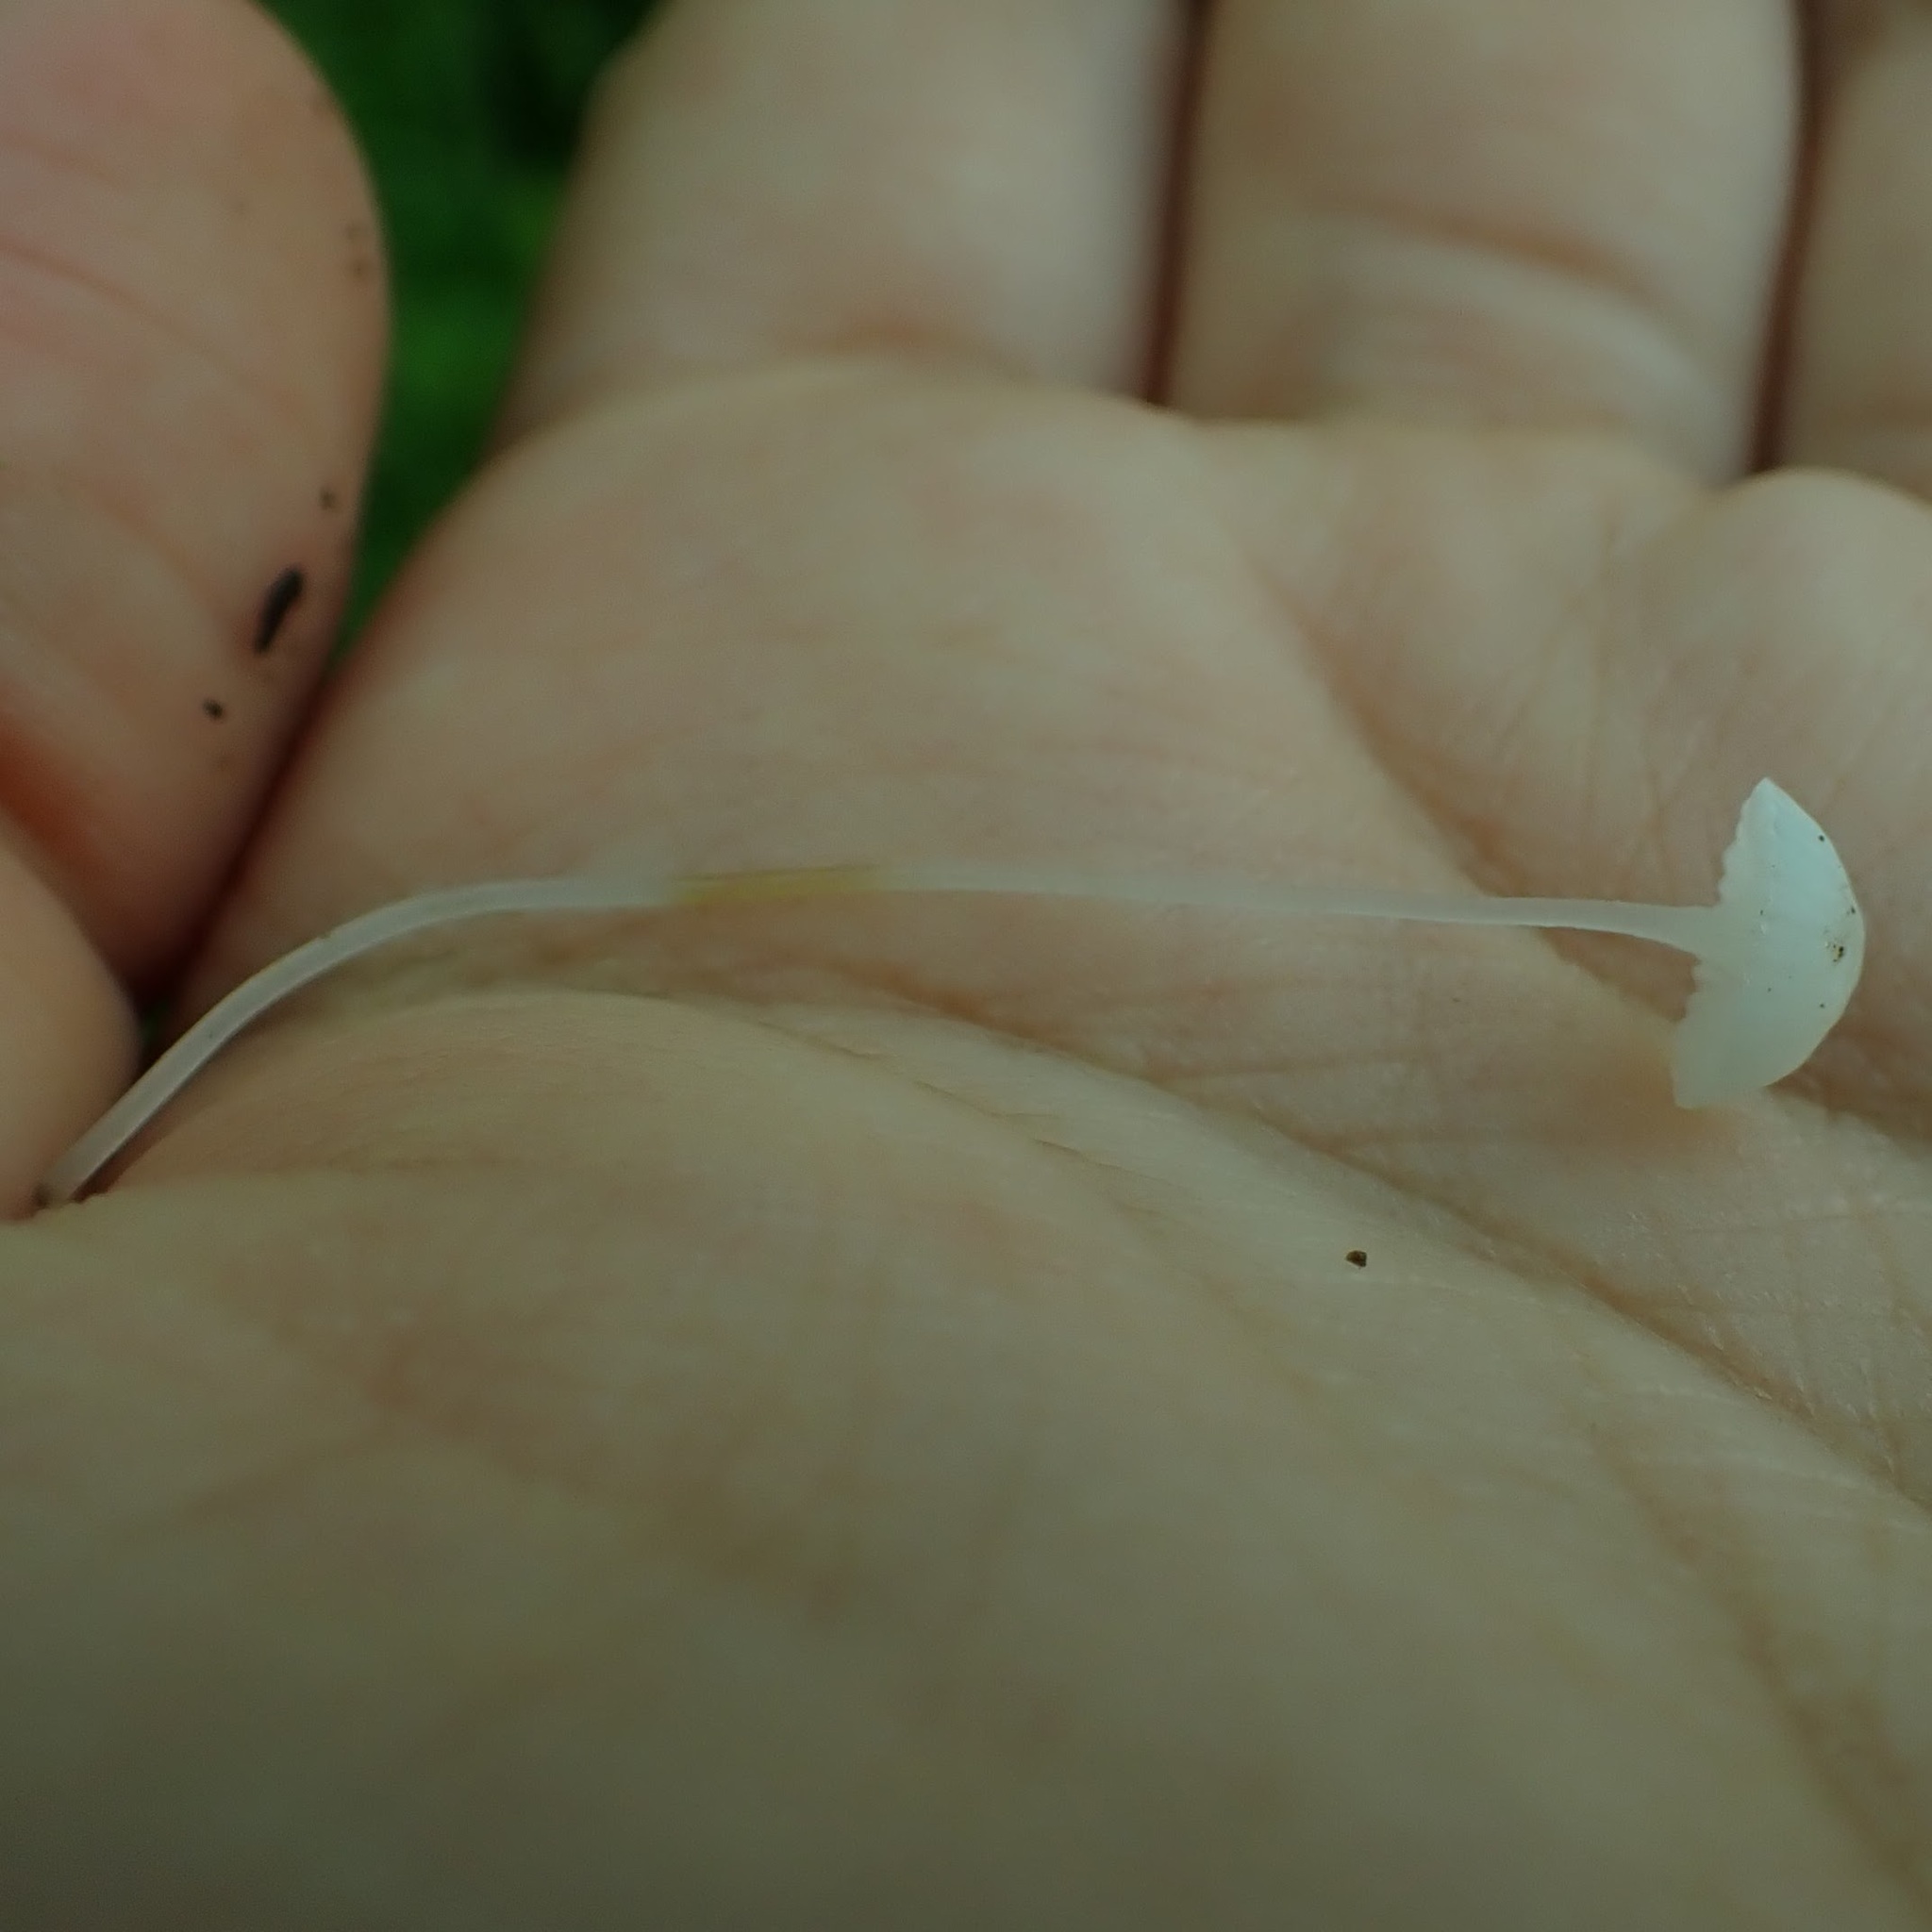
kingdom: Fungi
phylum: Basidiomycota
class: Agaricomycetes
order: Agaricales
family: Mycenaceae
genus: Roridomyces
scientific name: Roridomyces roridus
